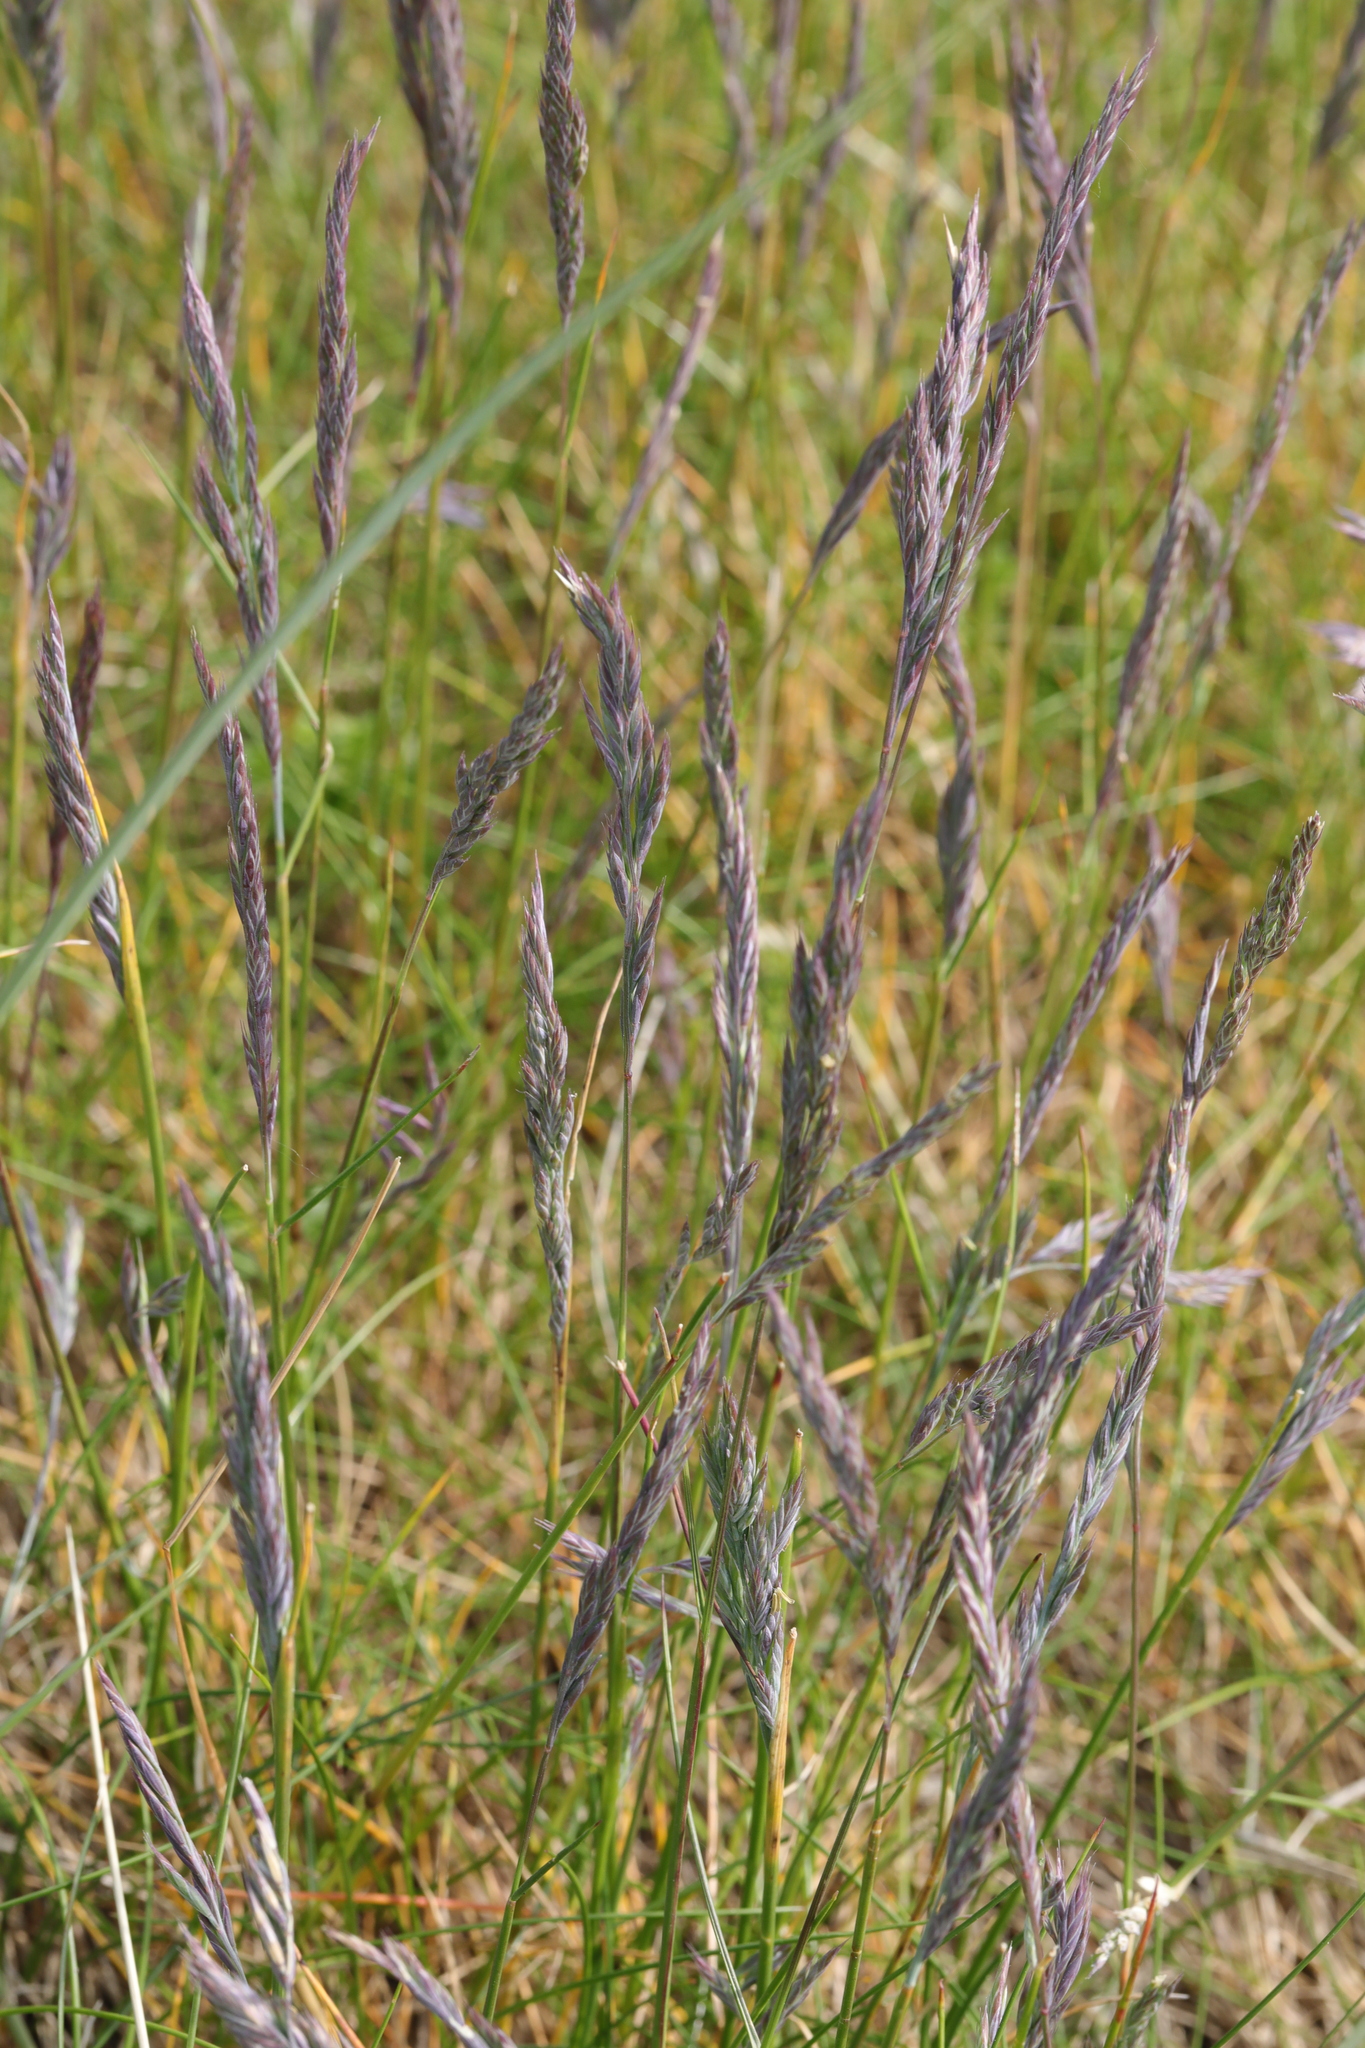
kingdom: Plantae
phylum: Tracheophyta
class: Liliopsida
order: Poales
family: Poaceae
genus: Festuca
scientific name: Festuca rubra
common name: Red fescue
